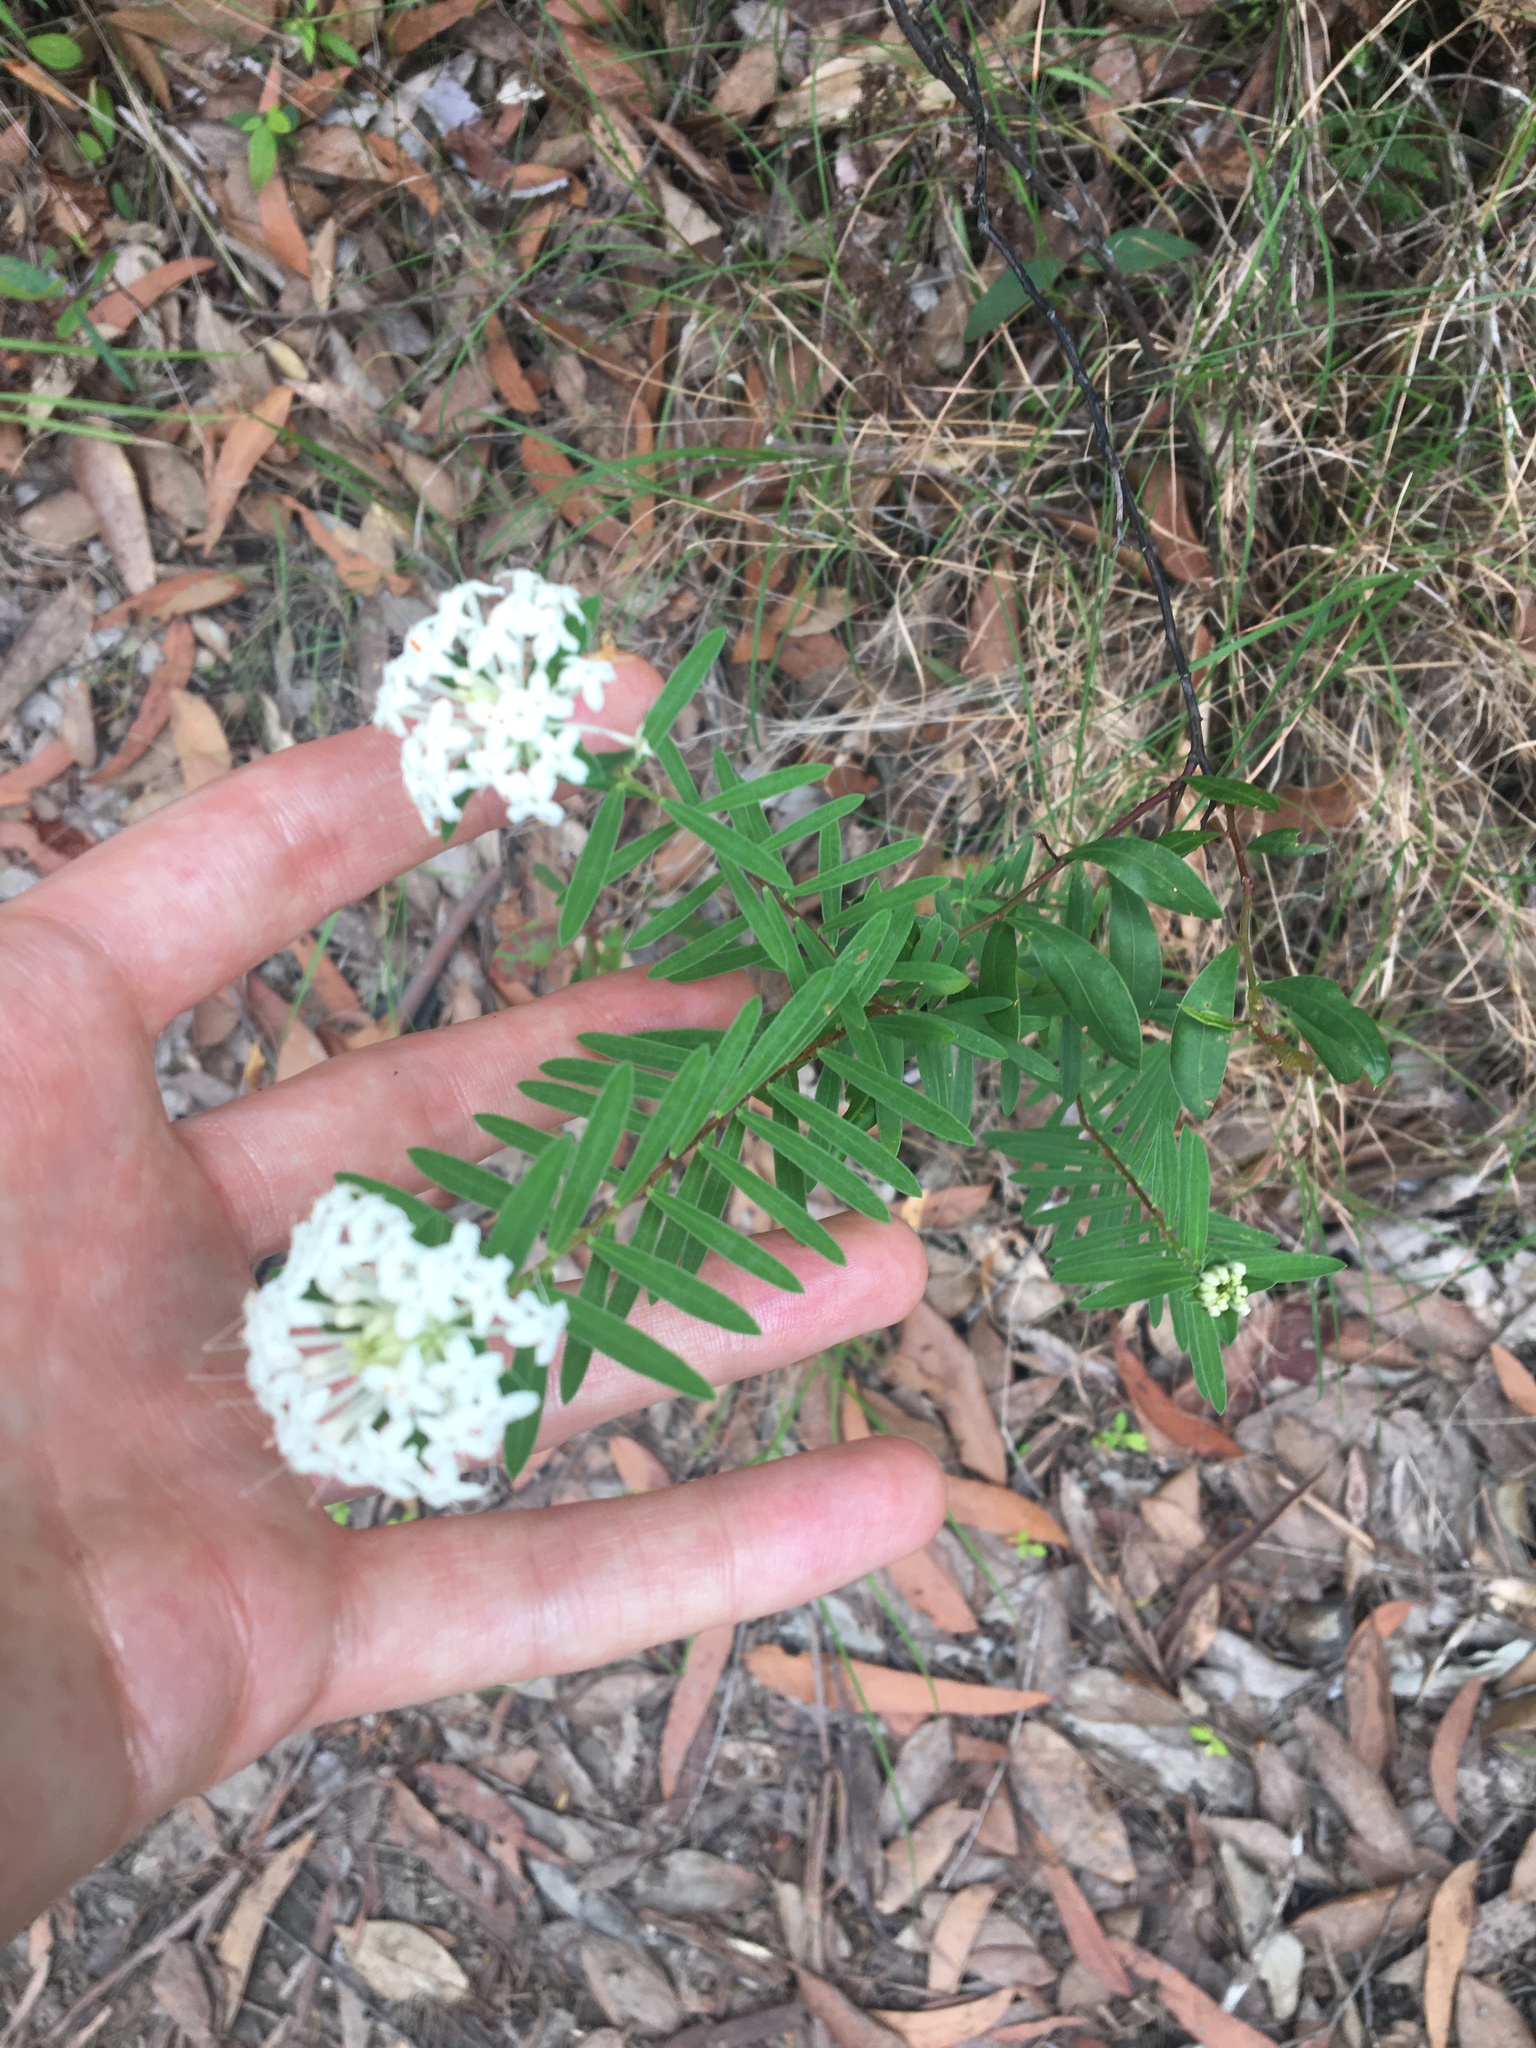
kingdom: Plantae
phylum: Tracheophyta
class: Magnoliopsida
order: Malvales
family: Thymelaeaceae
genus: Pimelea
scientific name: Pimelea linifolia
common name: Queen-of-the-bush
